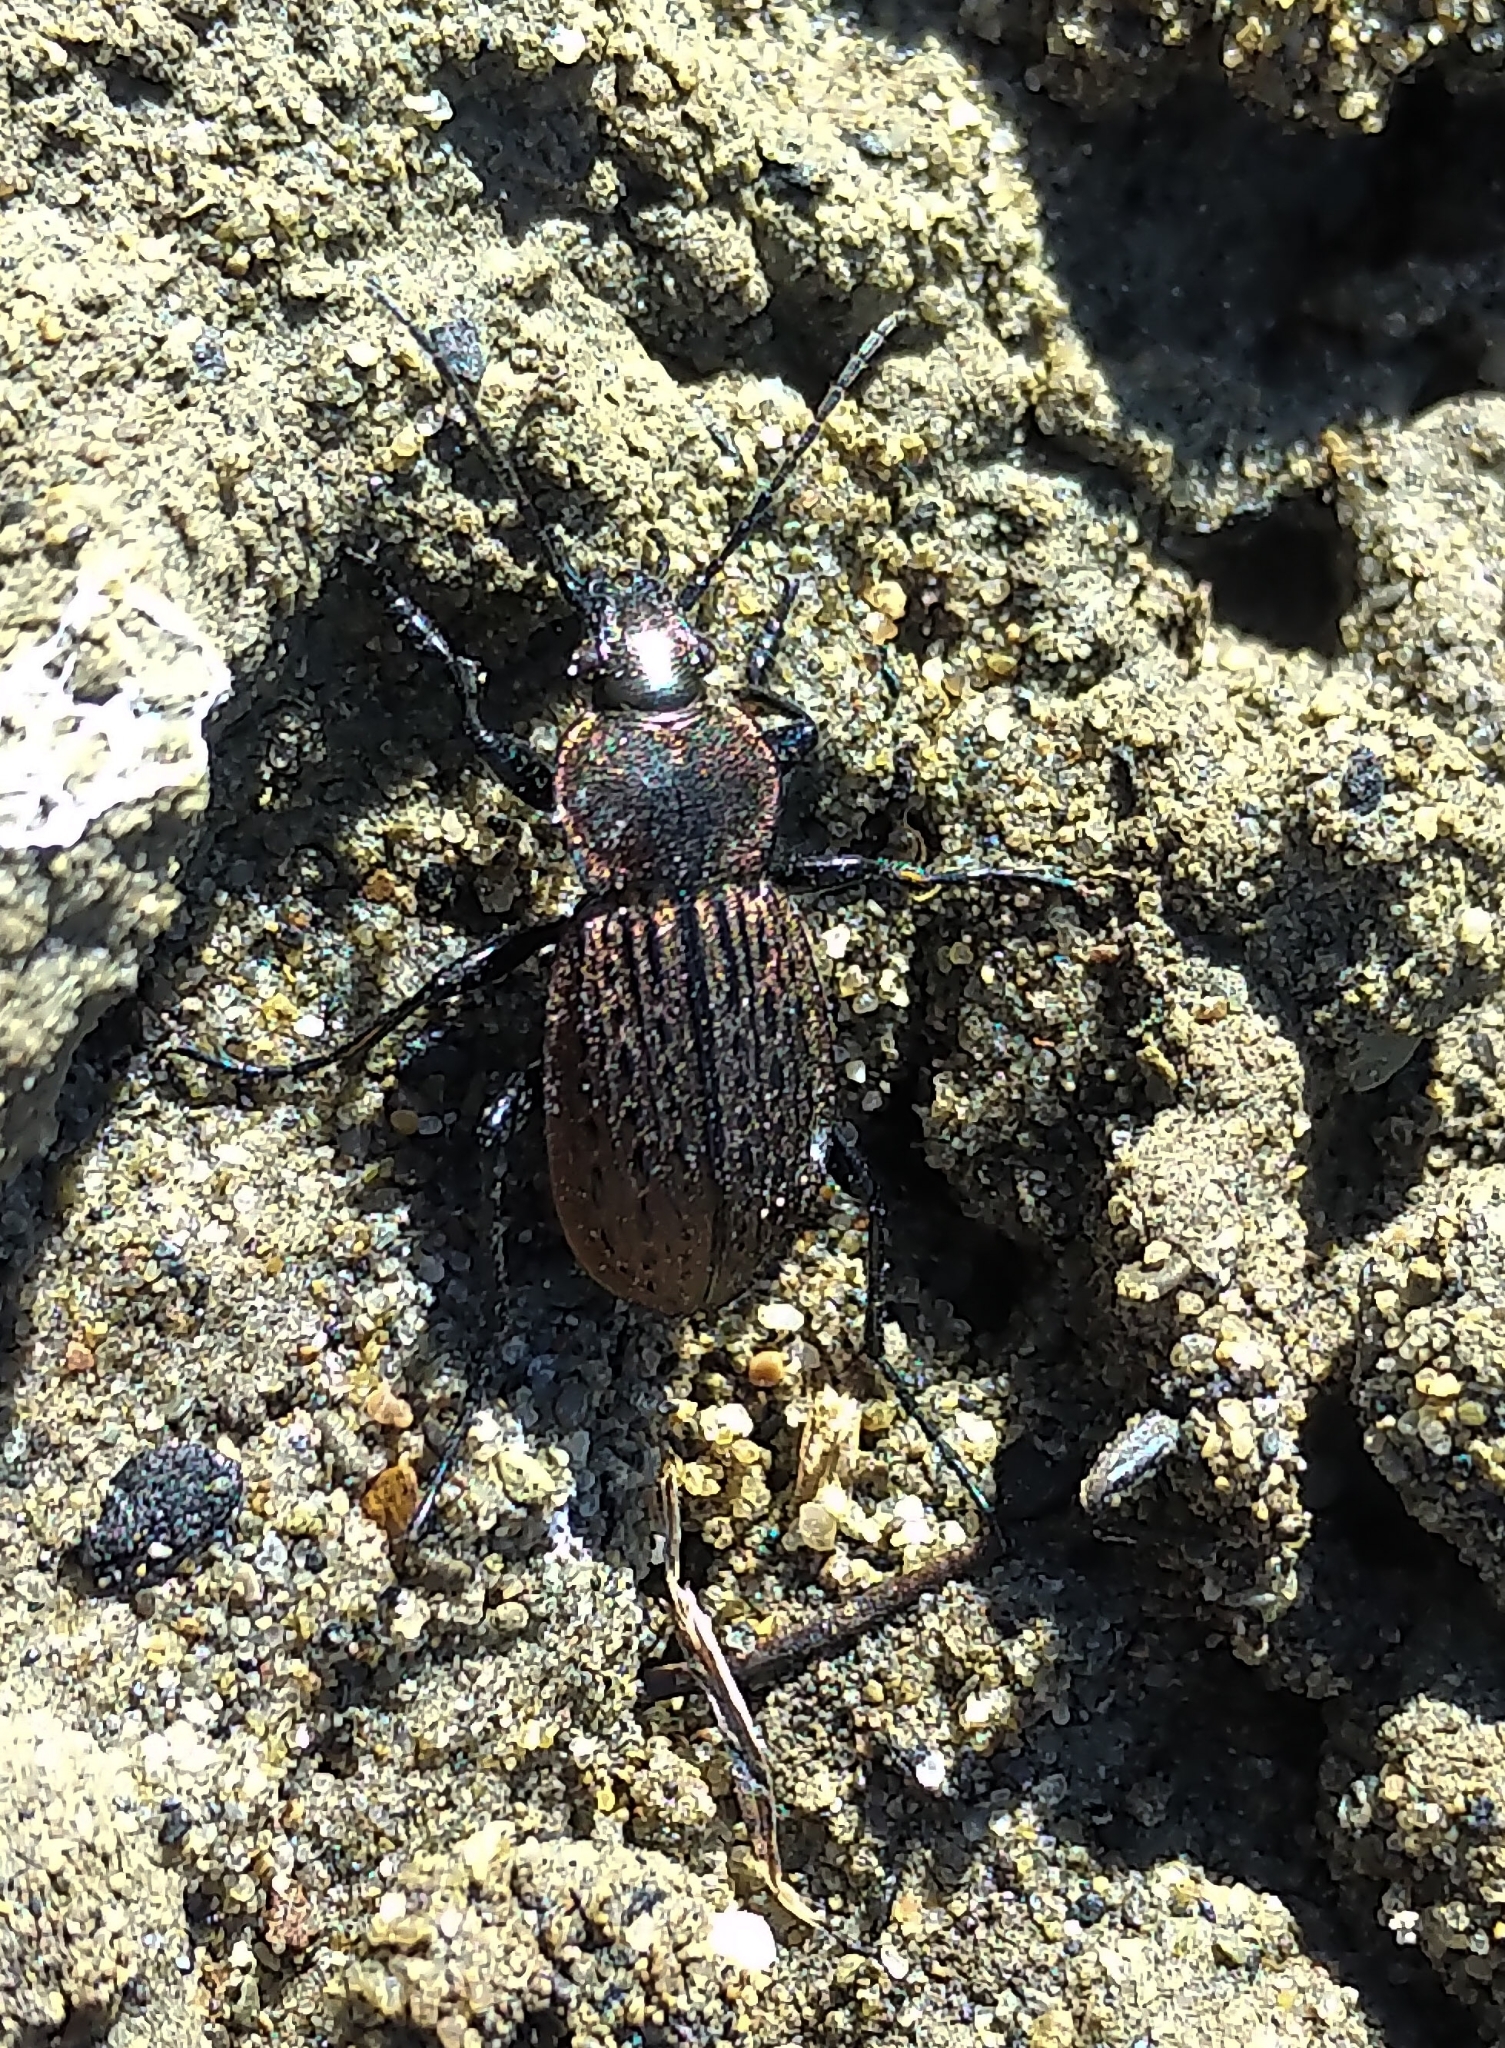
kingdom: Animalia
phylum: Arthropoda
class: Insecta
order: Coleoptera
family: Carabidae
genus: Carabus
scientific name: Carabus maeander
